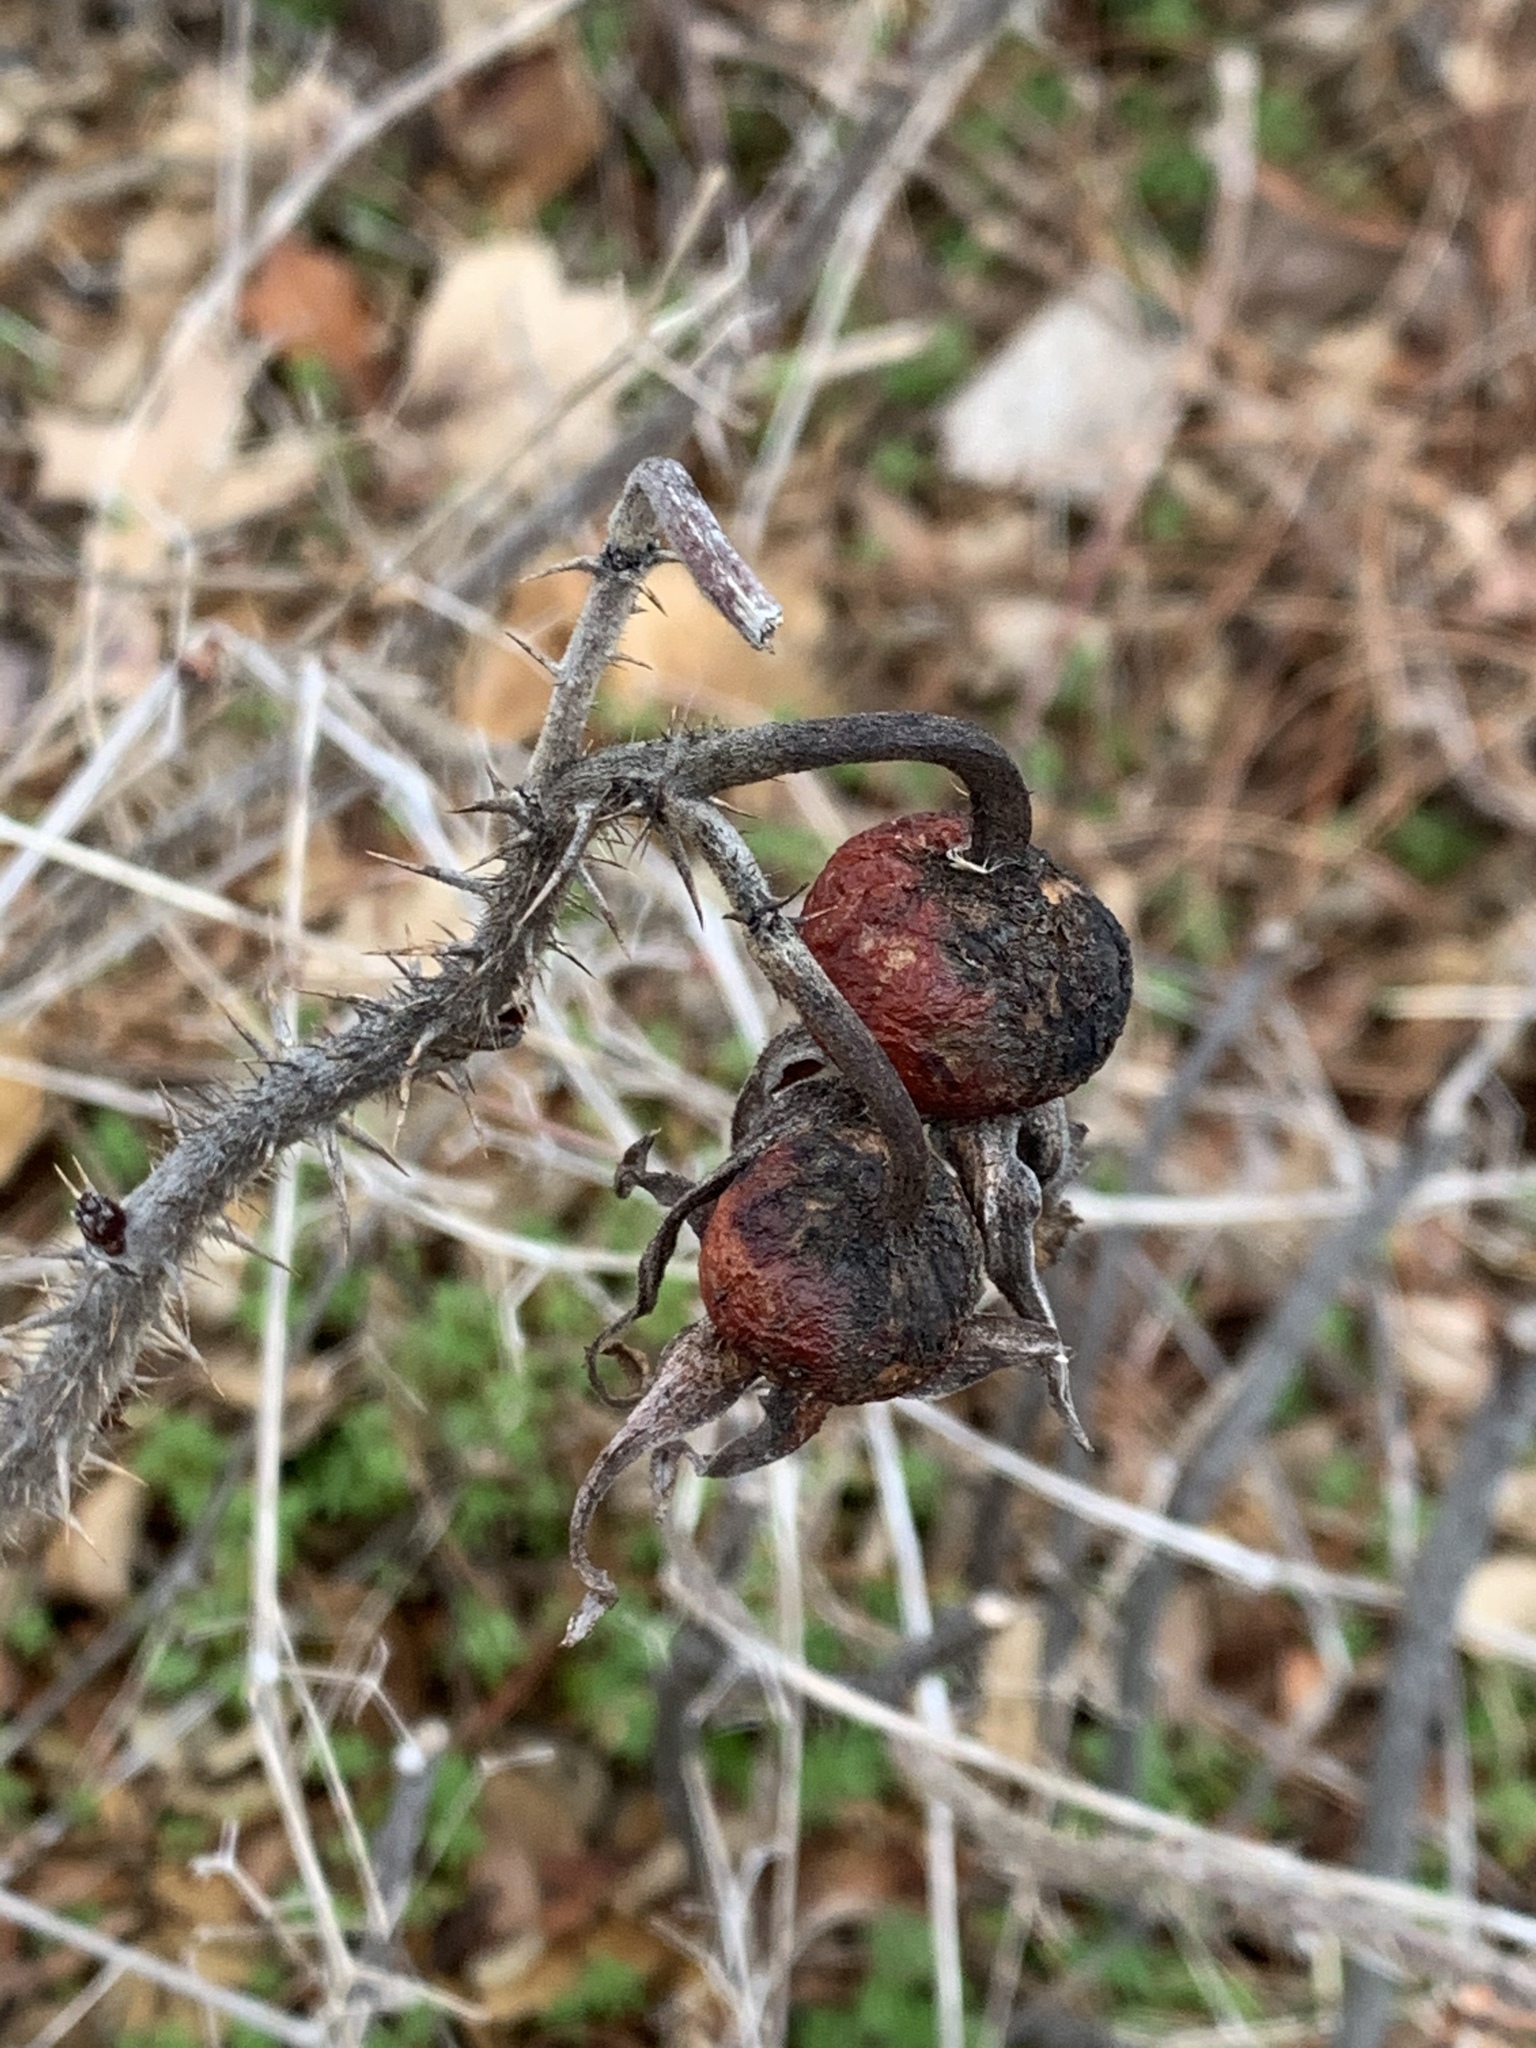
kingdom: Plantae
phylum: Tracheophyta
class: Magnoliopsida
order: Rosales
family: Rosaceae
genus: Rosa
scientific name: Rosa rugosa
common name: Japanese rose
